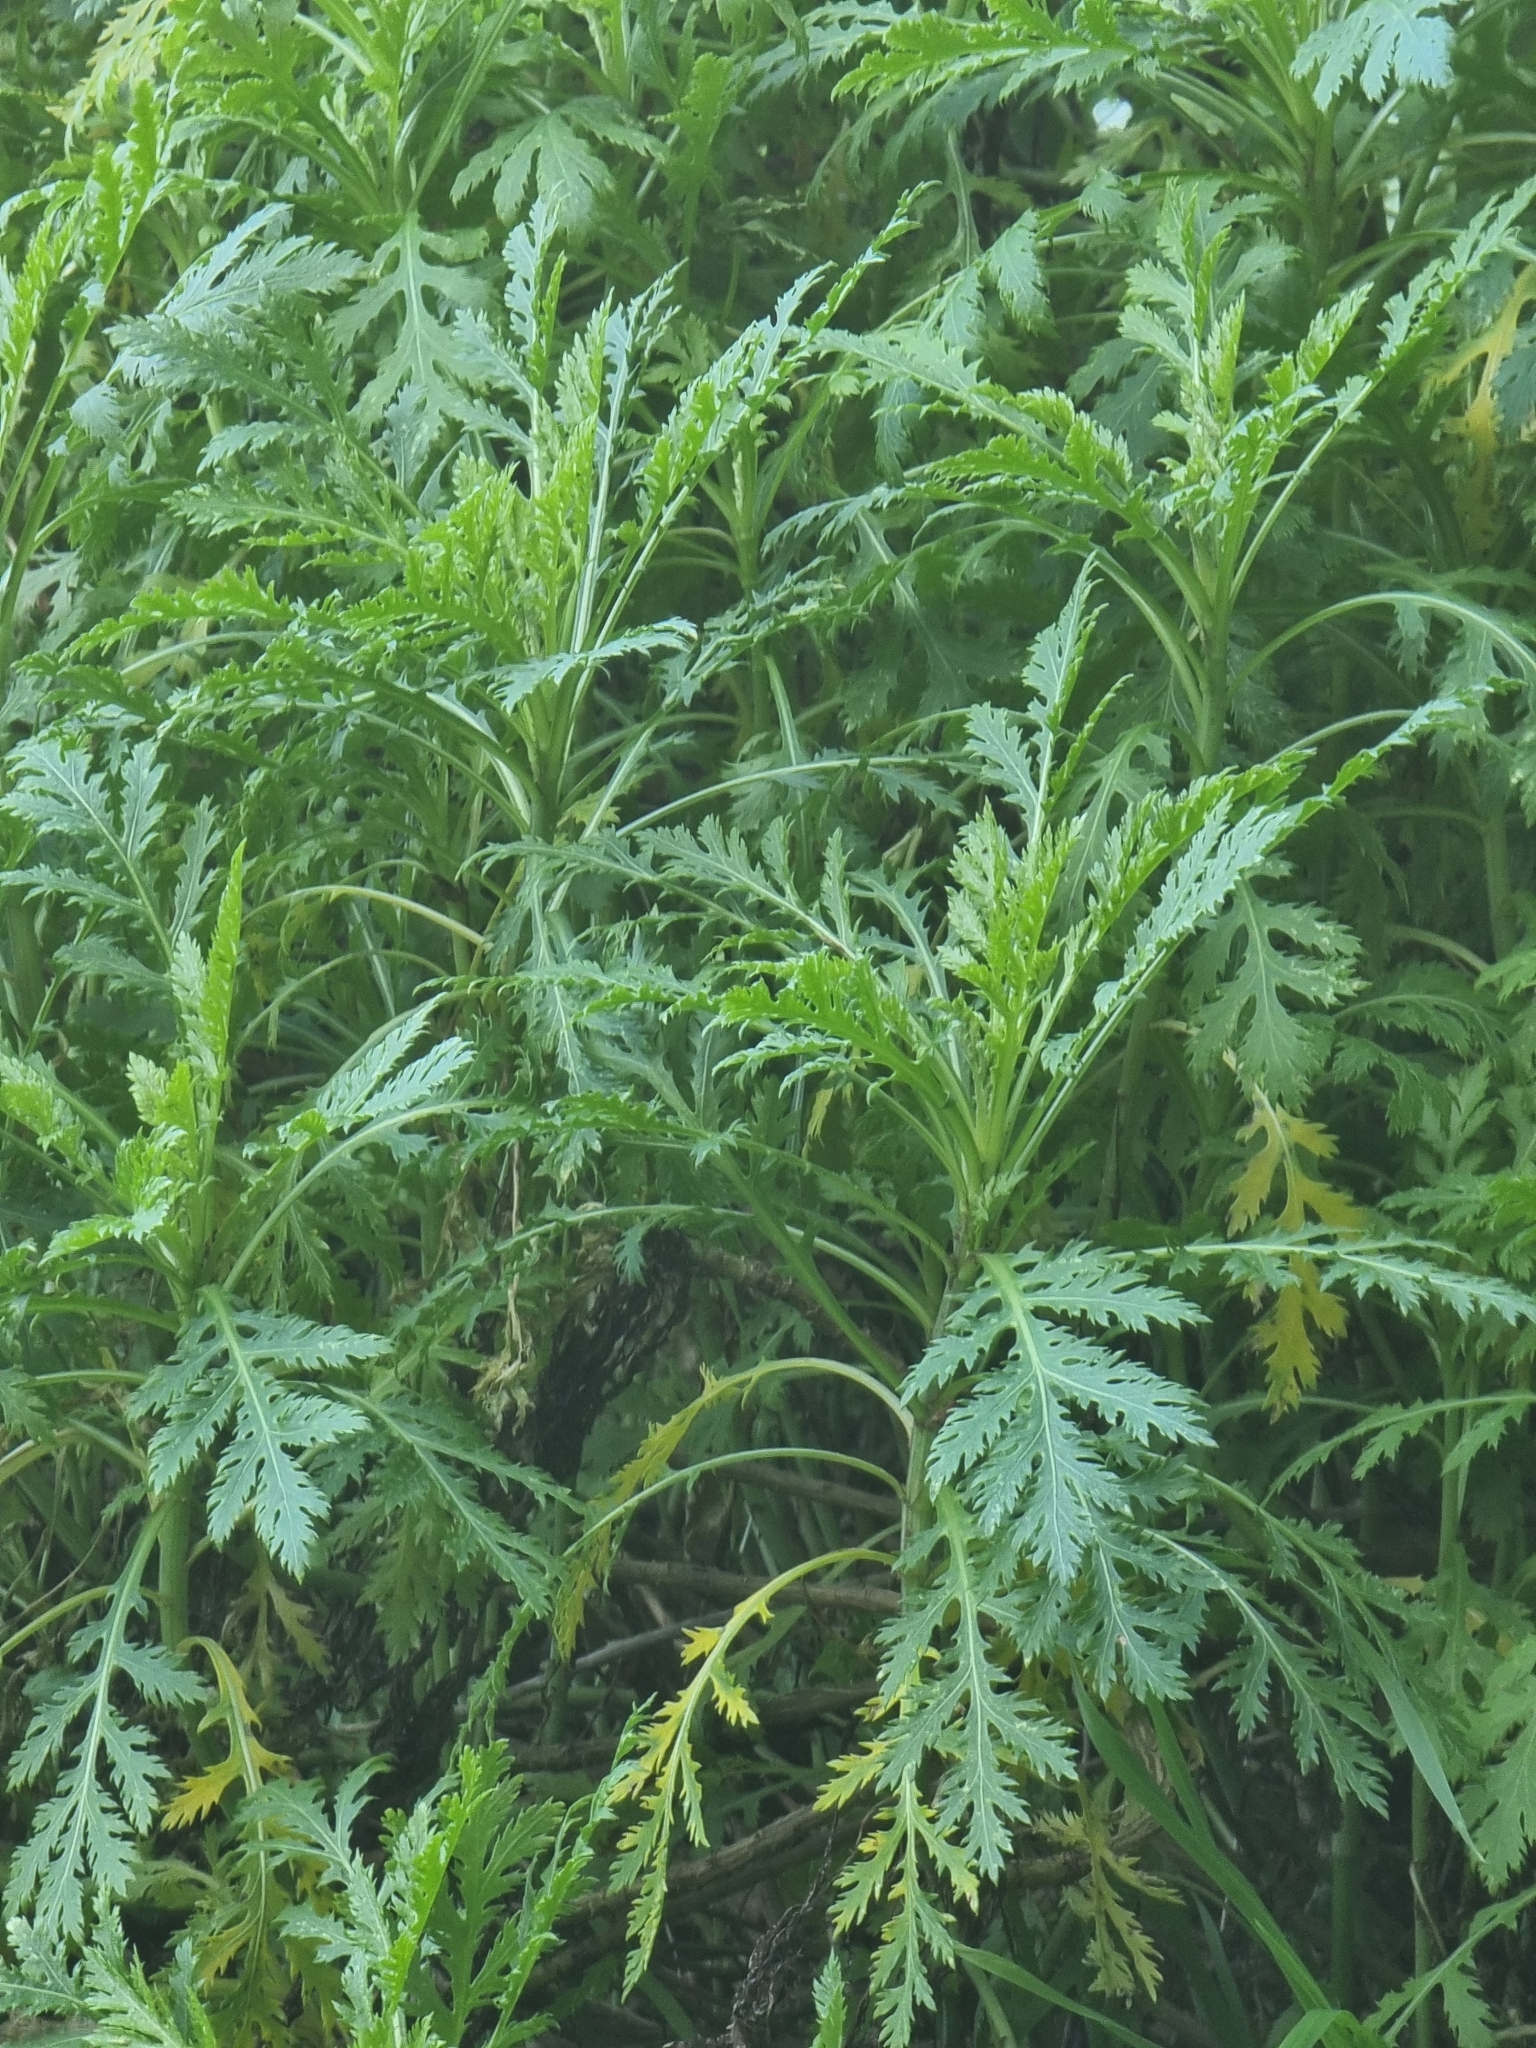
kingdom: Plantae
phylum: Tracheophyta
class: Magnoliopsida
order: Asterales
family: Asteraceae
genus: Argyranthemum
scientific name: Argyranthemum dissectum
